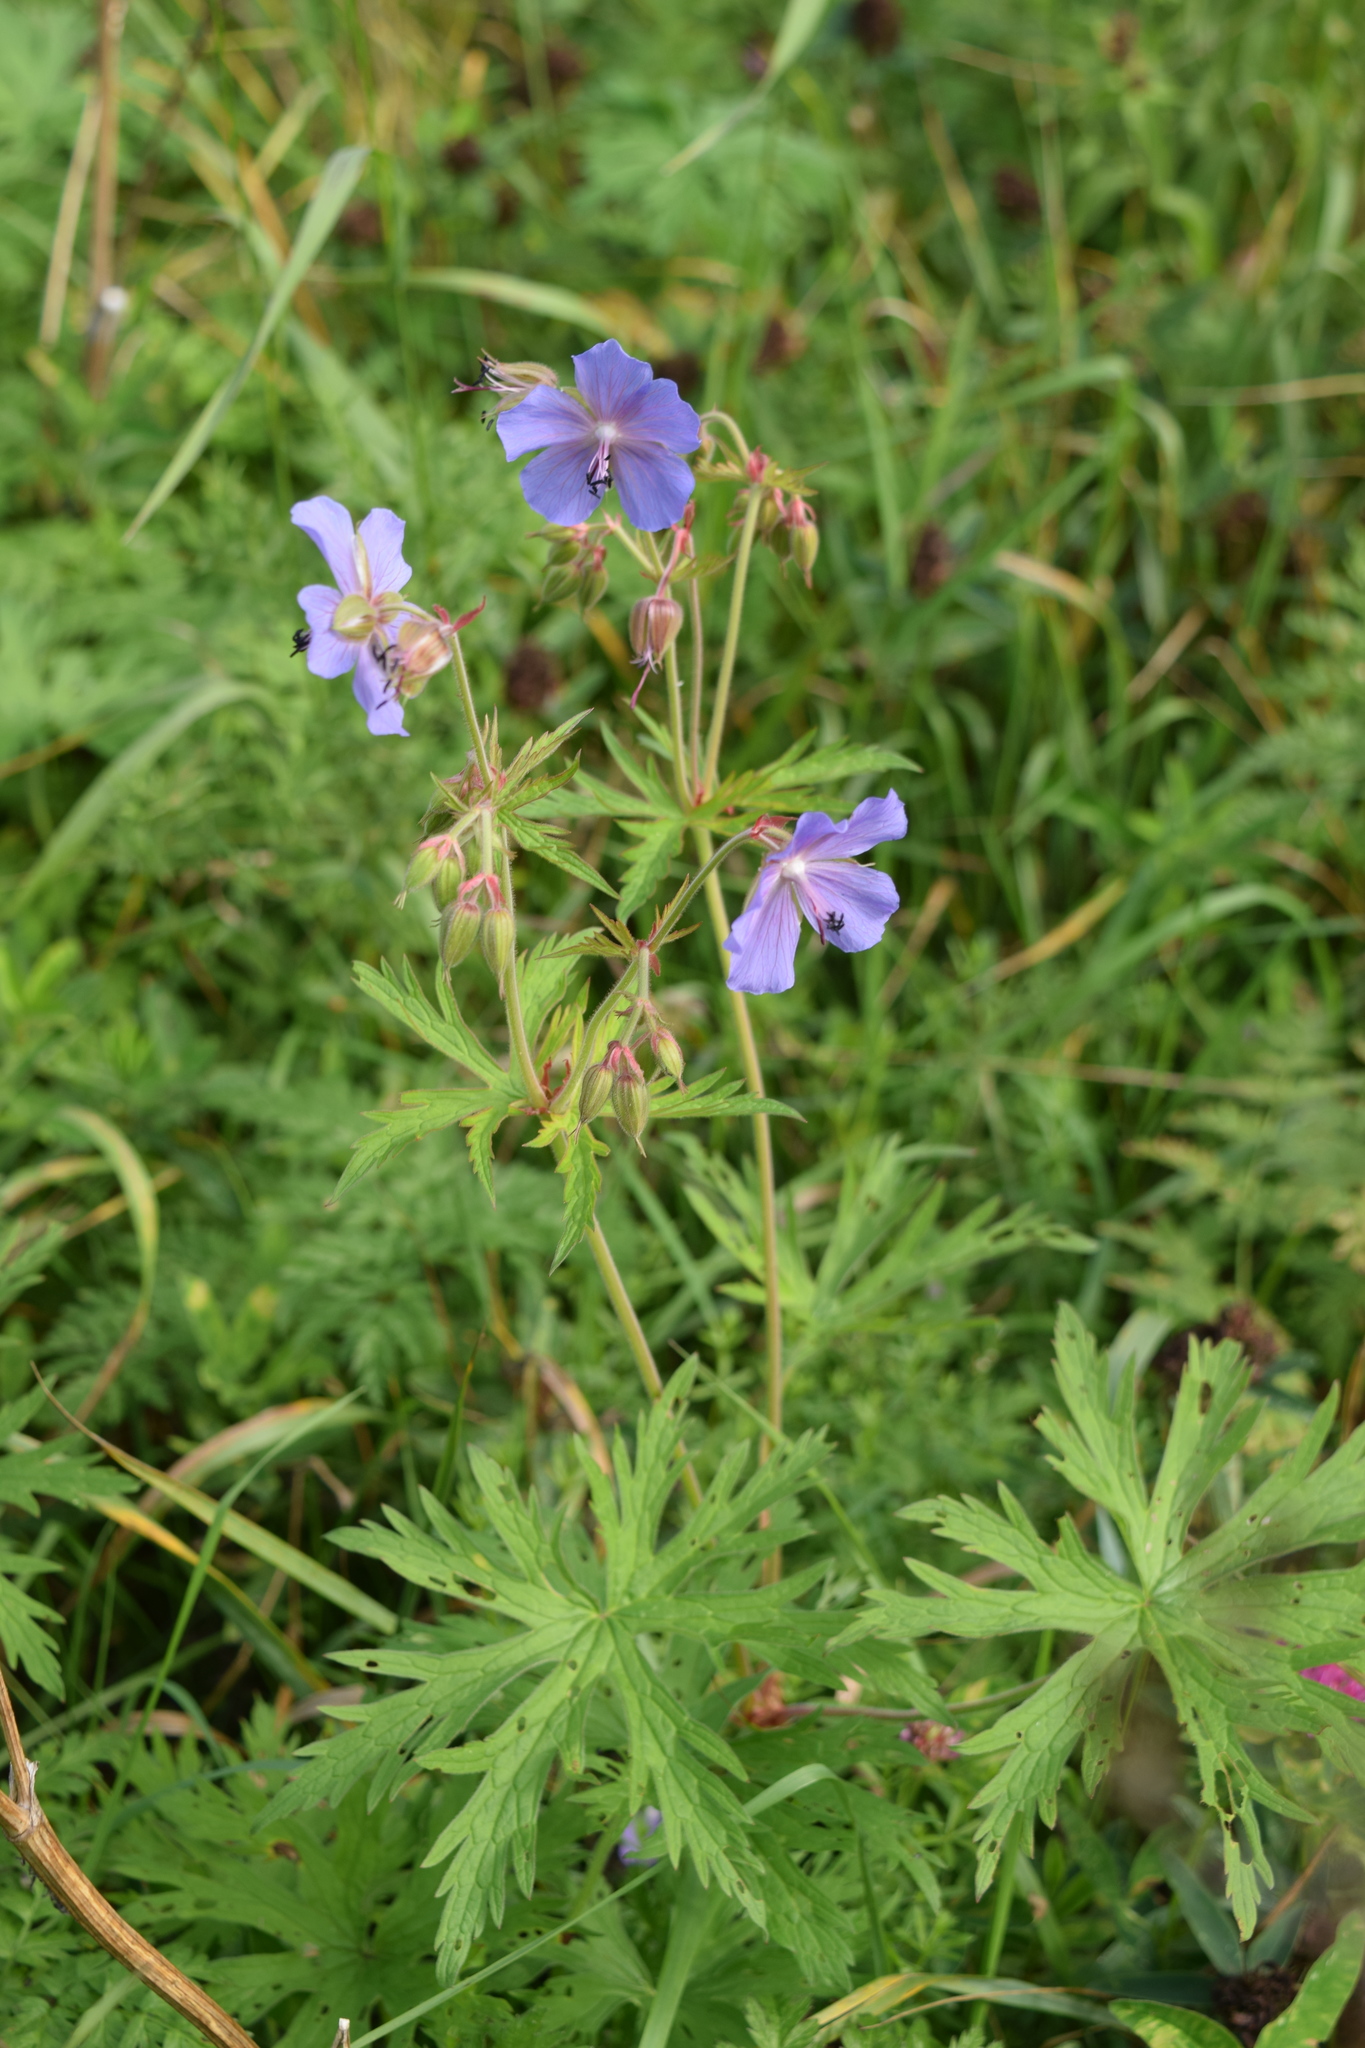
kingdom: Plantae
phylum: Tracheophyta
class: Magnoliopsida
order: Geraniales
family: Geraniaceae
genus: Geranium
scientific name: Geranium pratense
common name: Meadow crane's-bill
